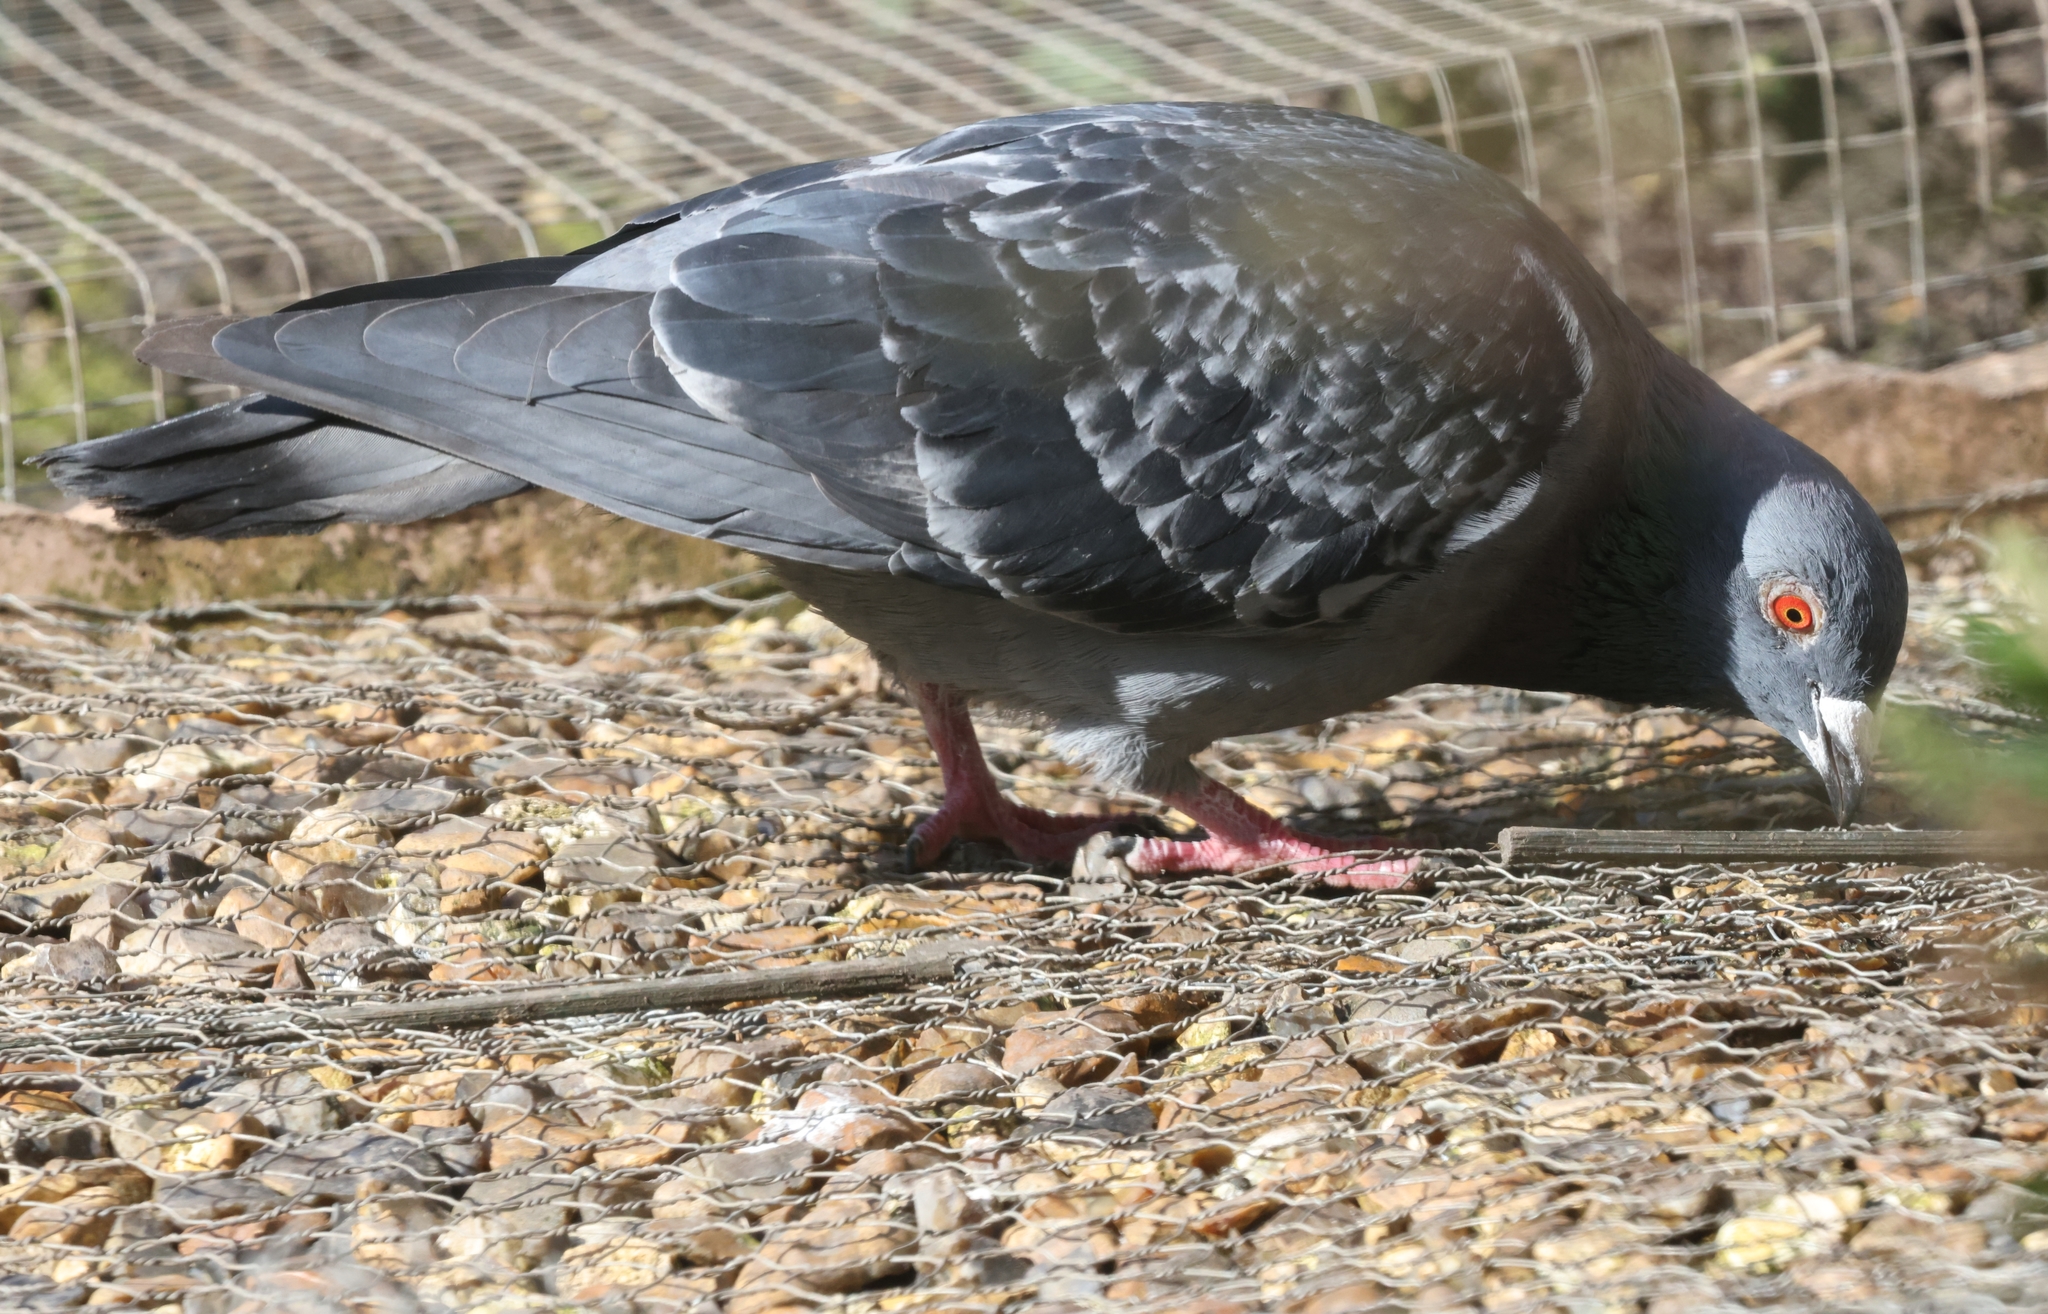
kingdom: Animalia
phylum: Chordata
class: Aves
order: Columbiformes
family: Columbidae
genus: Columba
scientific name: Columba livia
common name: Rock pigeon
